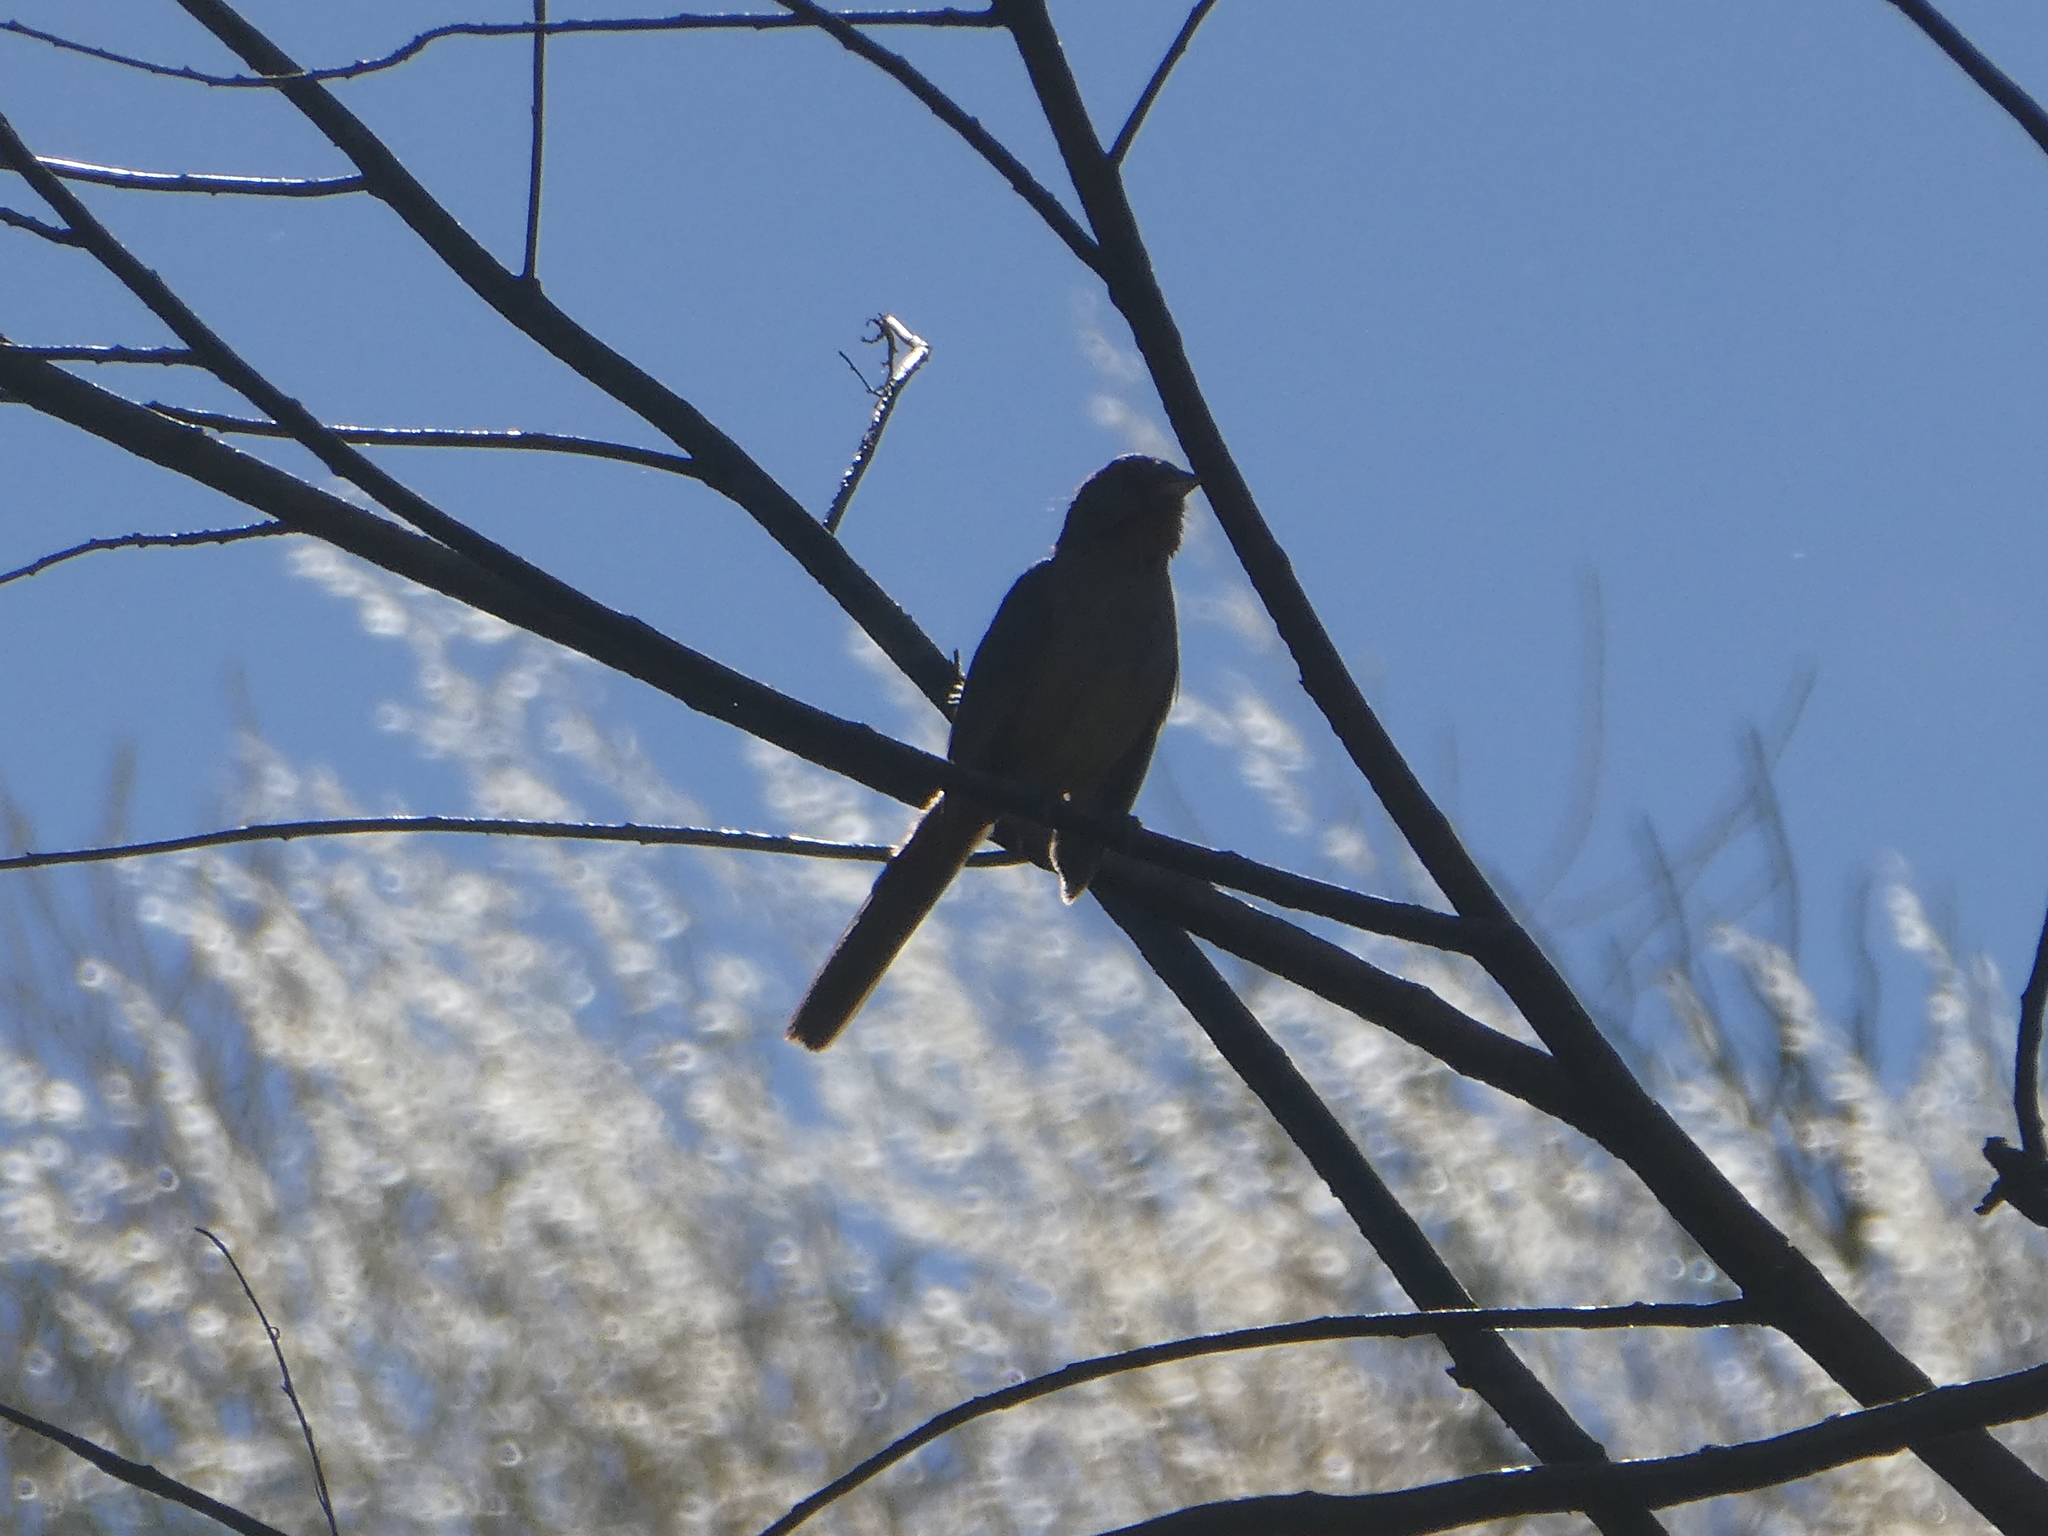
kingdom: Animalia
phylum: Chordata
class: Aves
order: Passeriformes
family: Passerellidae
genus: Melozone
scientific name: Melozone crissalis
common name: California towhee
